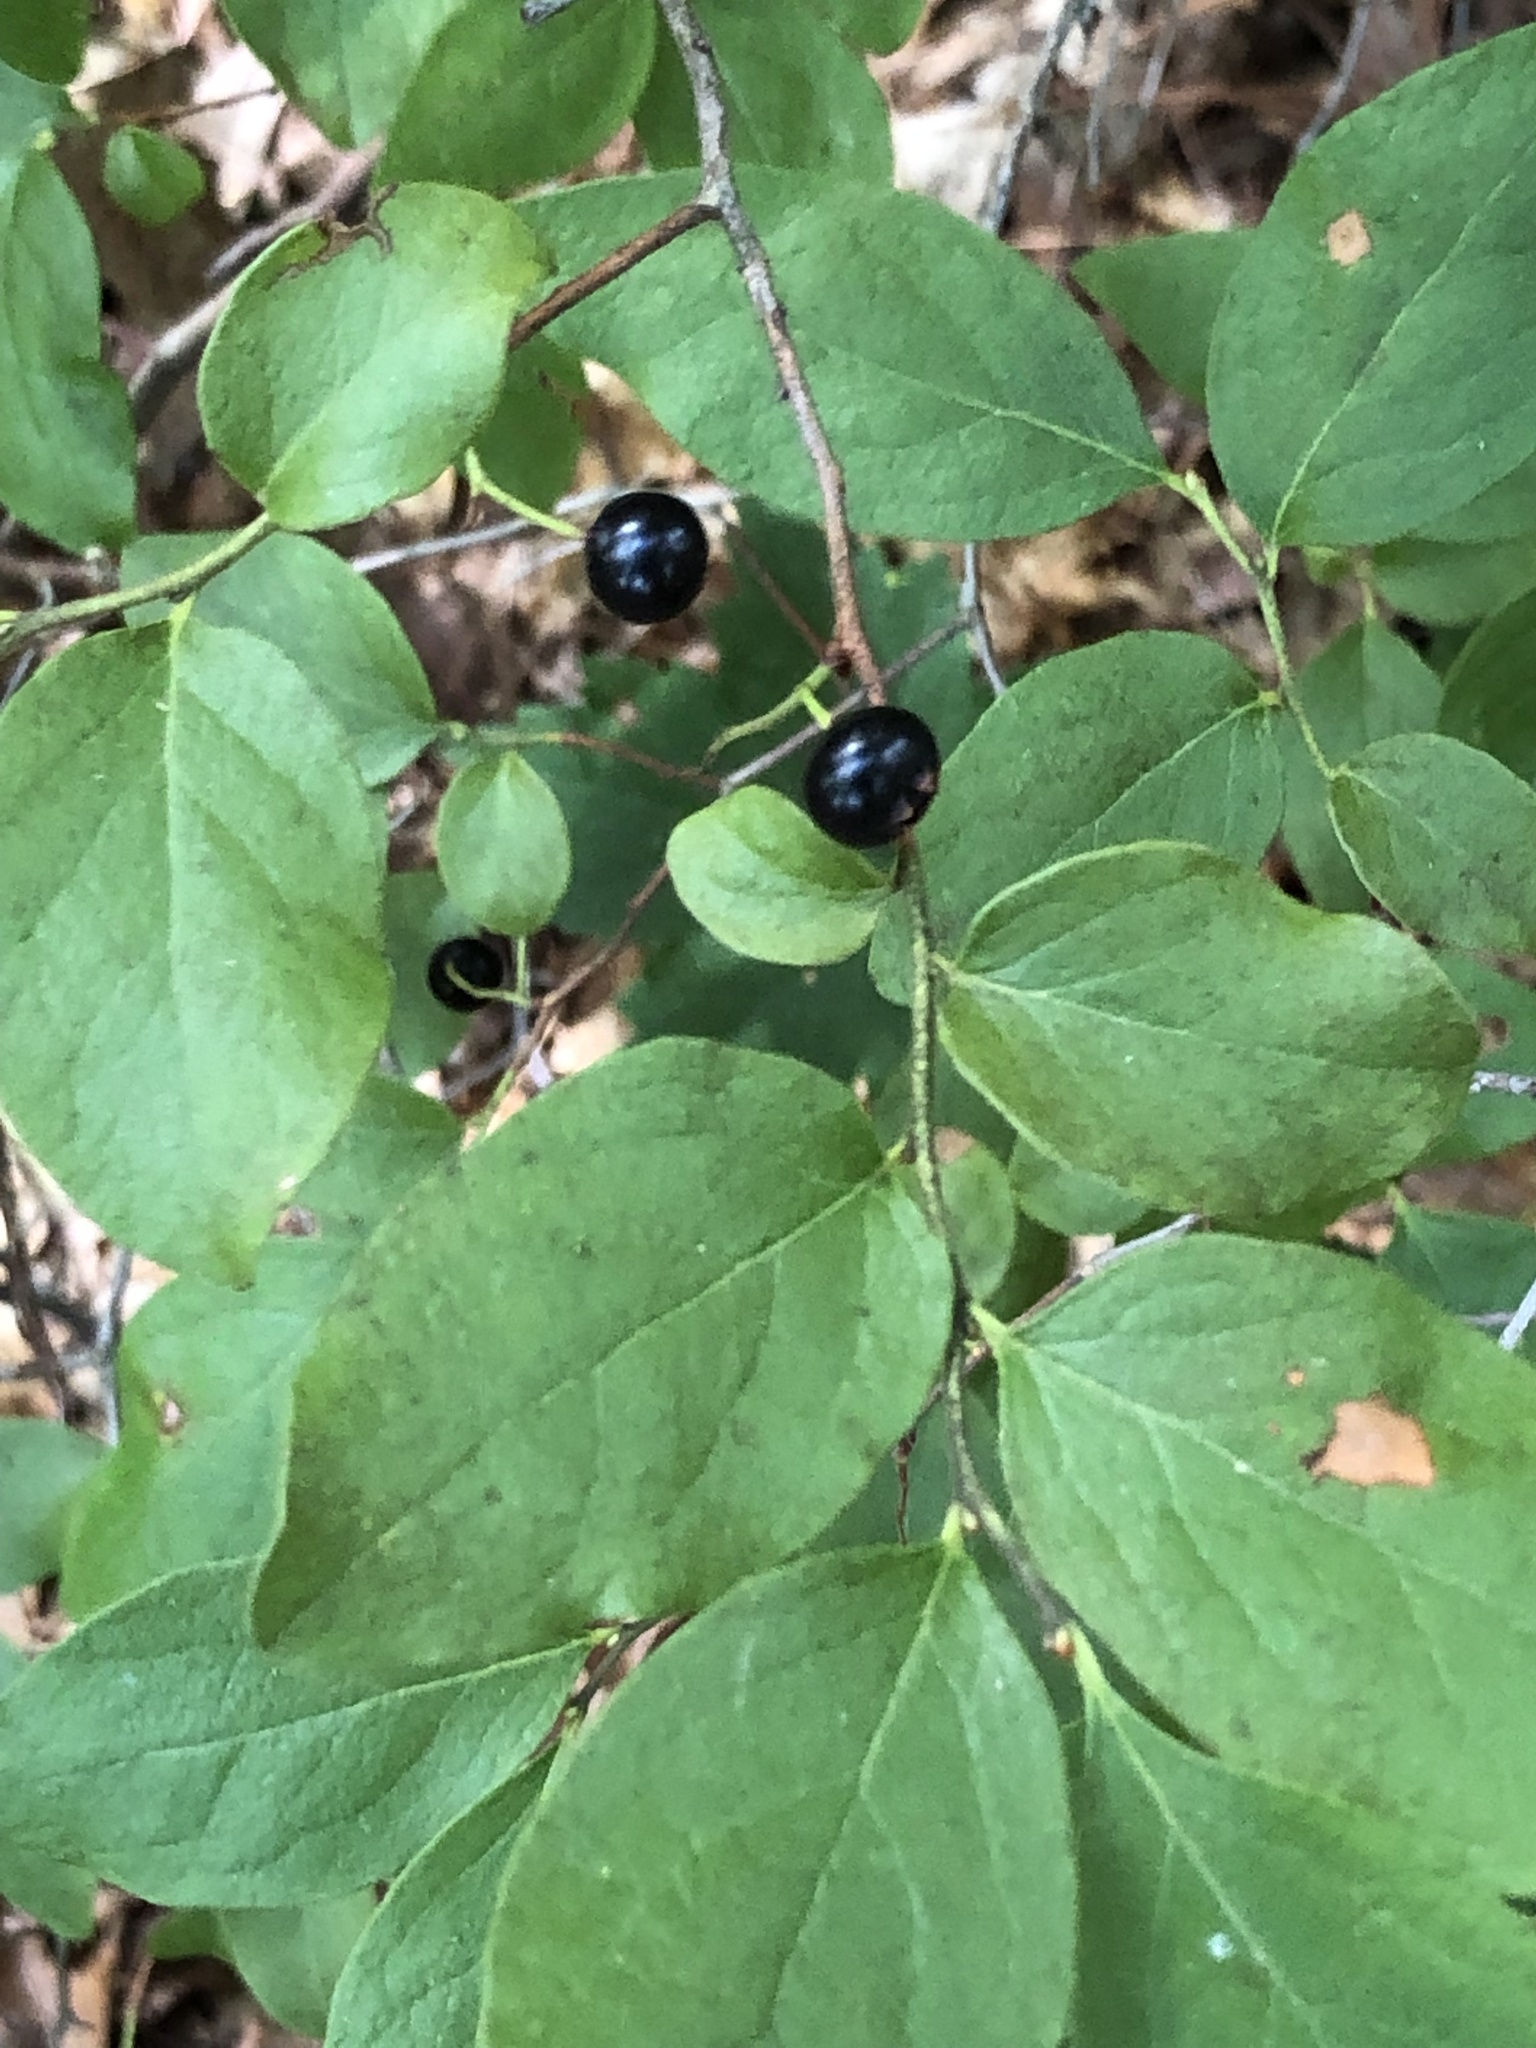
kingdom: Plantae
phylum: Tracheophyta
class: Magnoliopsida
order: Ericales
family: Ericaceae
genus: Gaylussacia
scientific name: Gaylussacia baccata
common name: Black huckleberry
